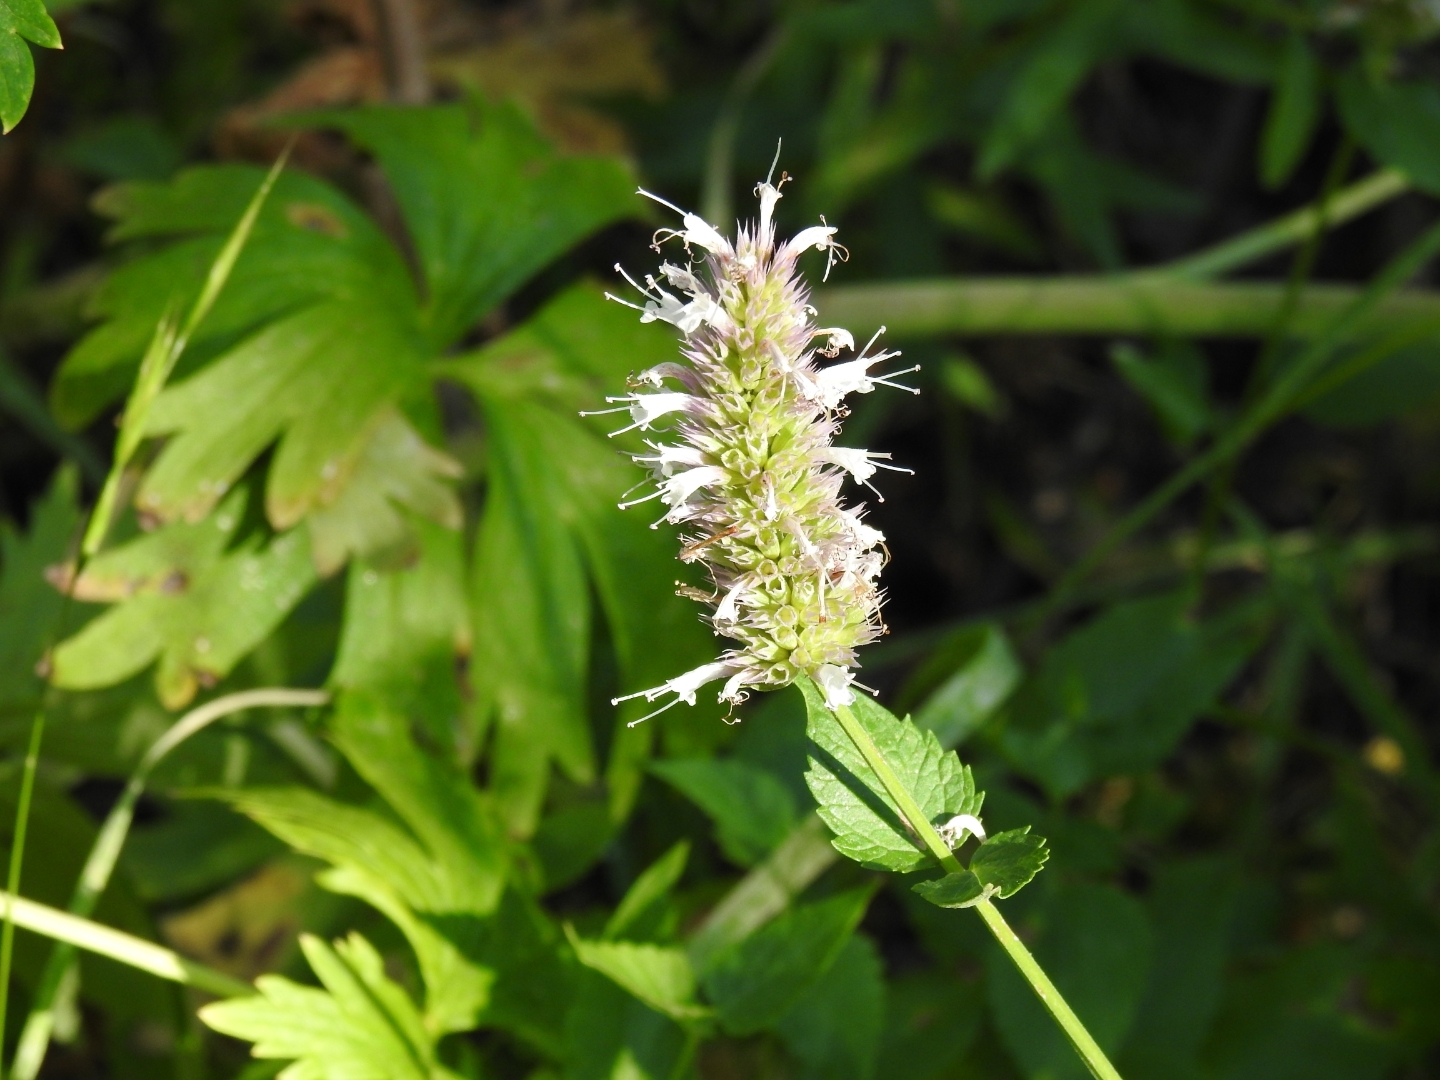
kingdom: Plantae
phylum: Tracheophyta
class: Magnoliopsida
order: Lamiales
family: Lamiaceae
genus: Agastache
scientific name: Agastache urticifolia
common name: Horsemint giant hyssop
